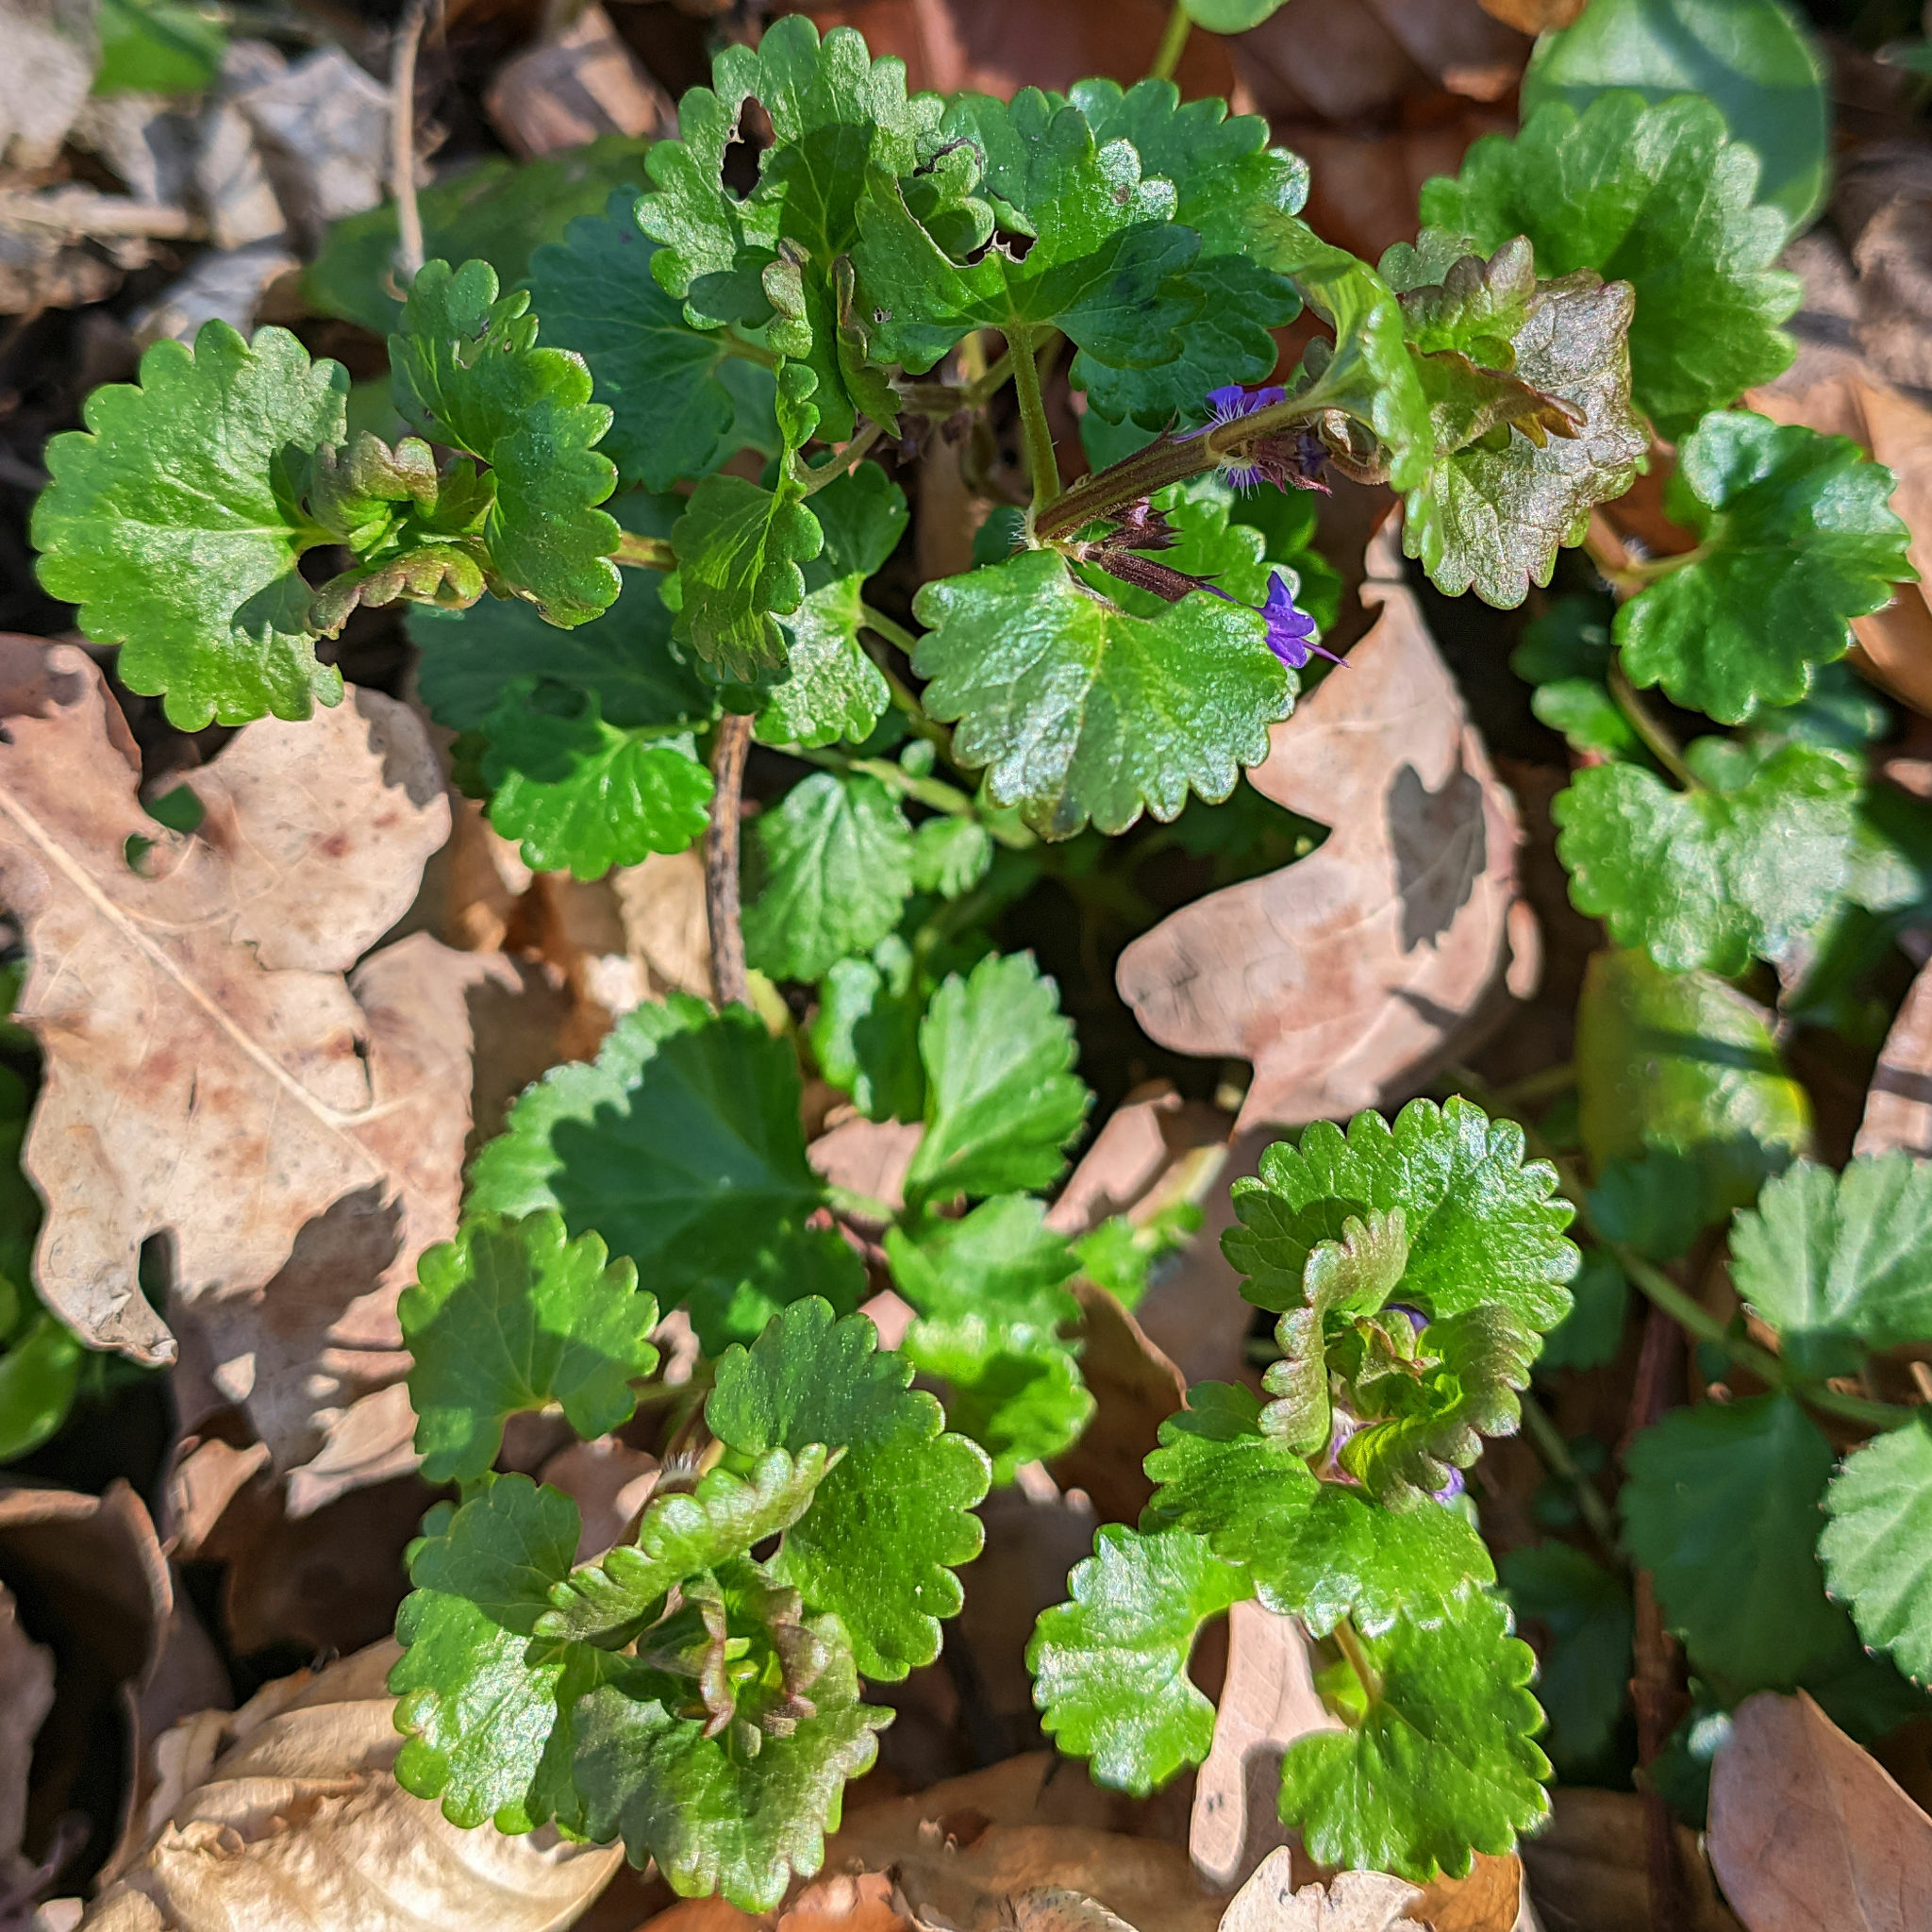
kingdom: Plantae
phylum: Tracheophyta
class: Magnoliopsida
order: Lamiales
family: Lamiaceae
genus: Glechoma
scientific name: Glechoma hederacea
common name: Ground ivy
